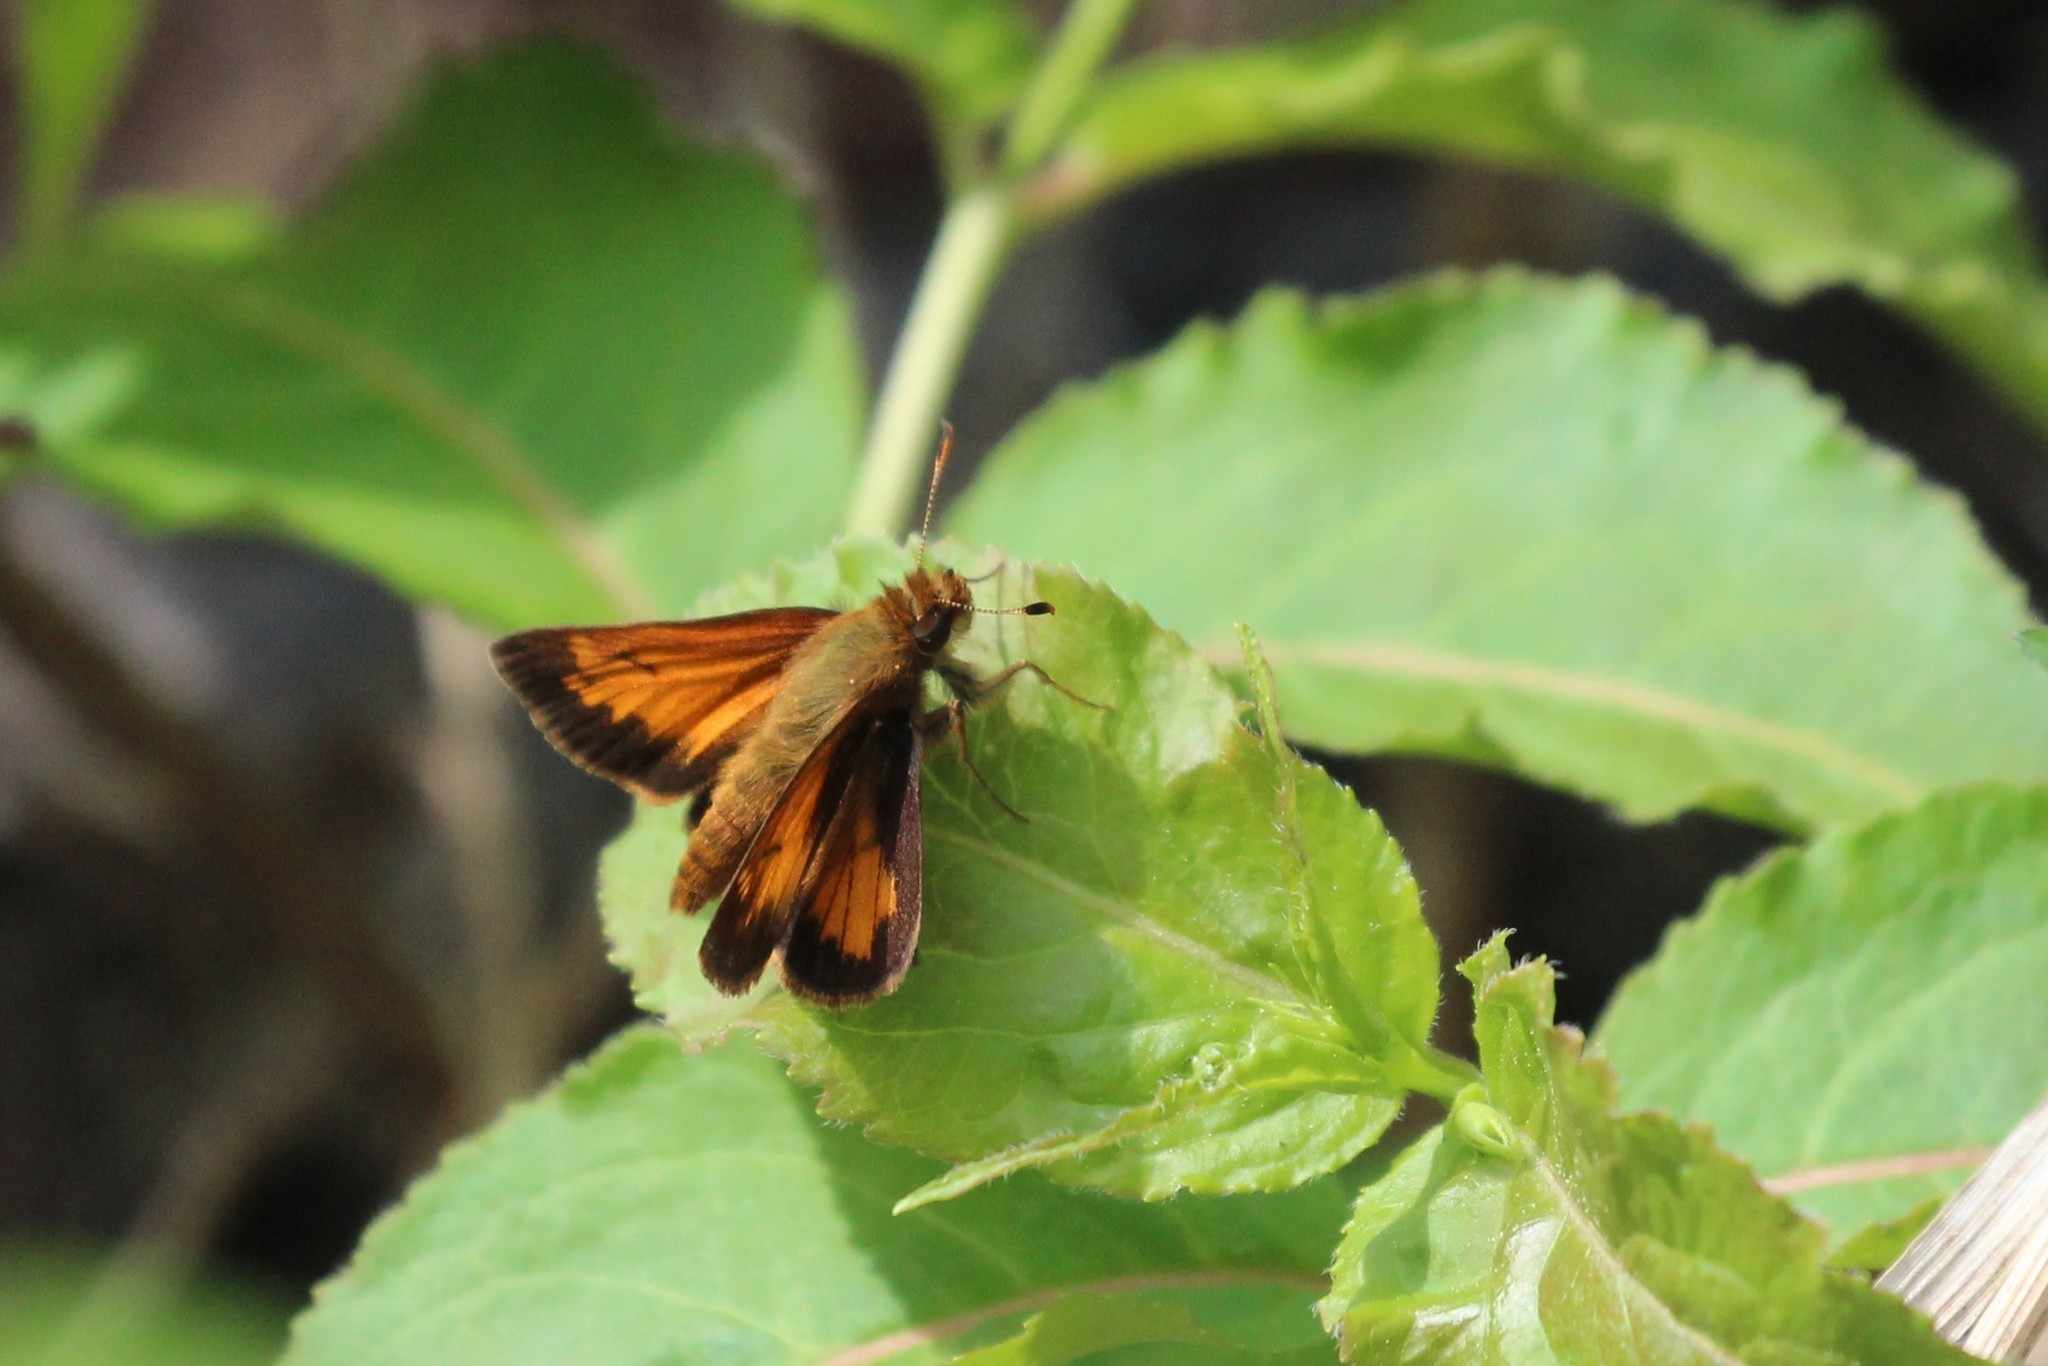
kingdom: Animalia
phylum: Arthropoda
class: Insecta
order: Lepidoptera
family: Hesperiidae
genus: Lon
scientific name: Lon hobomok
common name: Hobomok skipper
